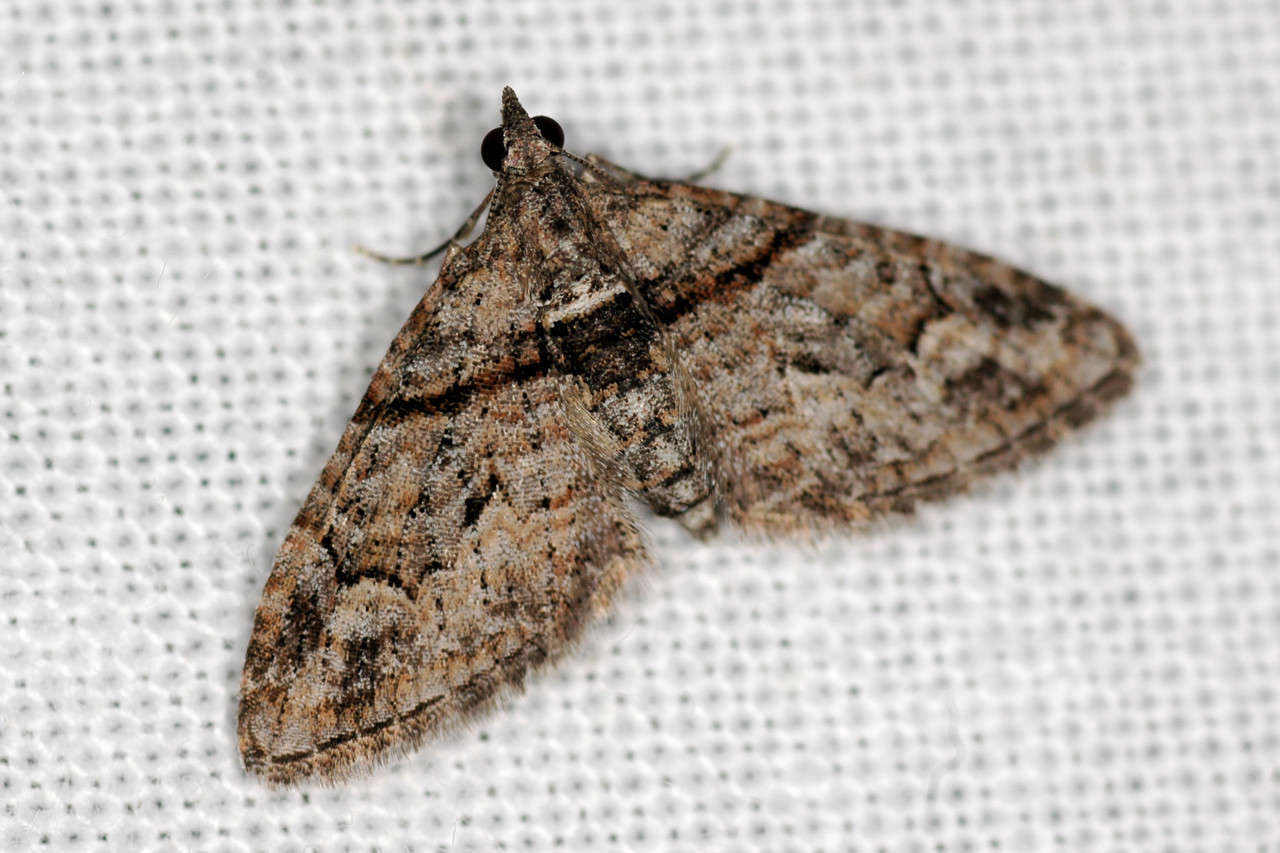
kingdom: Animalia
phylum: Arthropoda
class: Insecta
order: Lepidoptera
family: Geometridae
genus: Phrissogonus
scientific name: Phrissogonus laticostata
